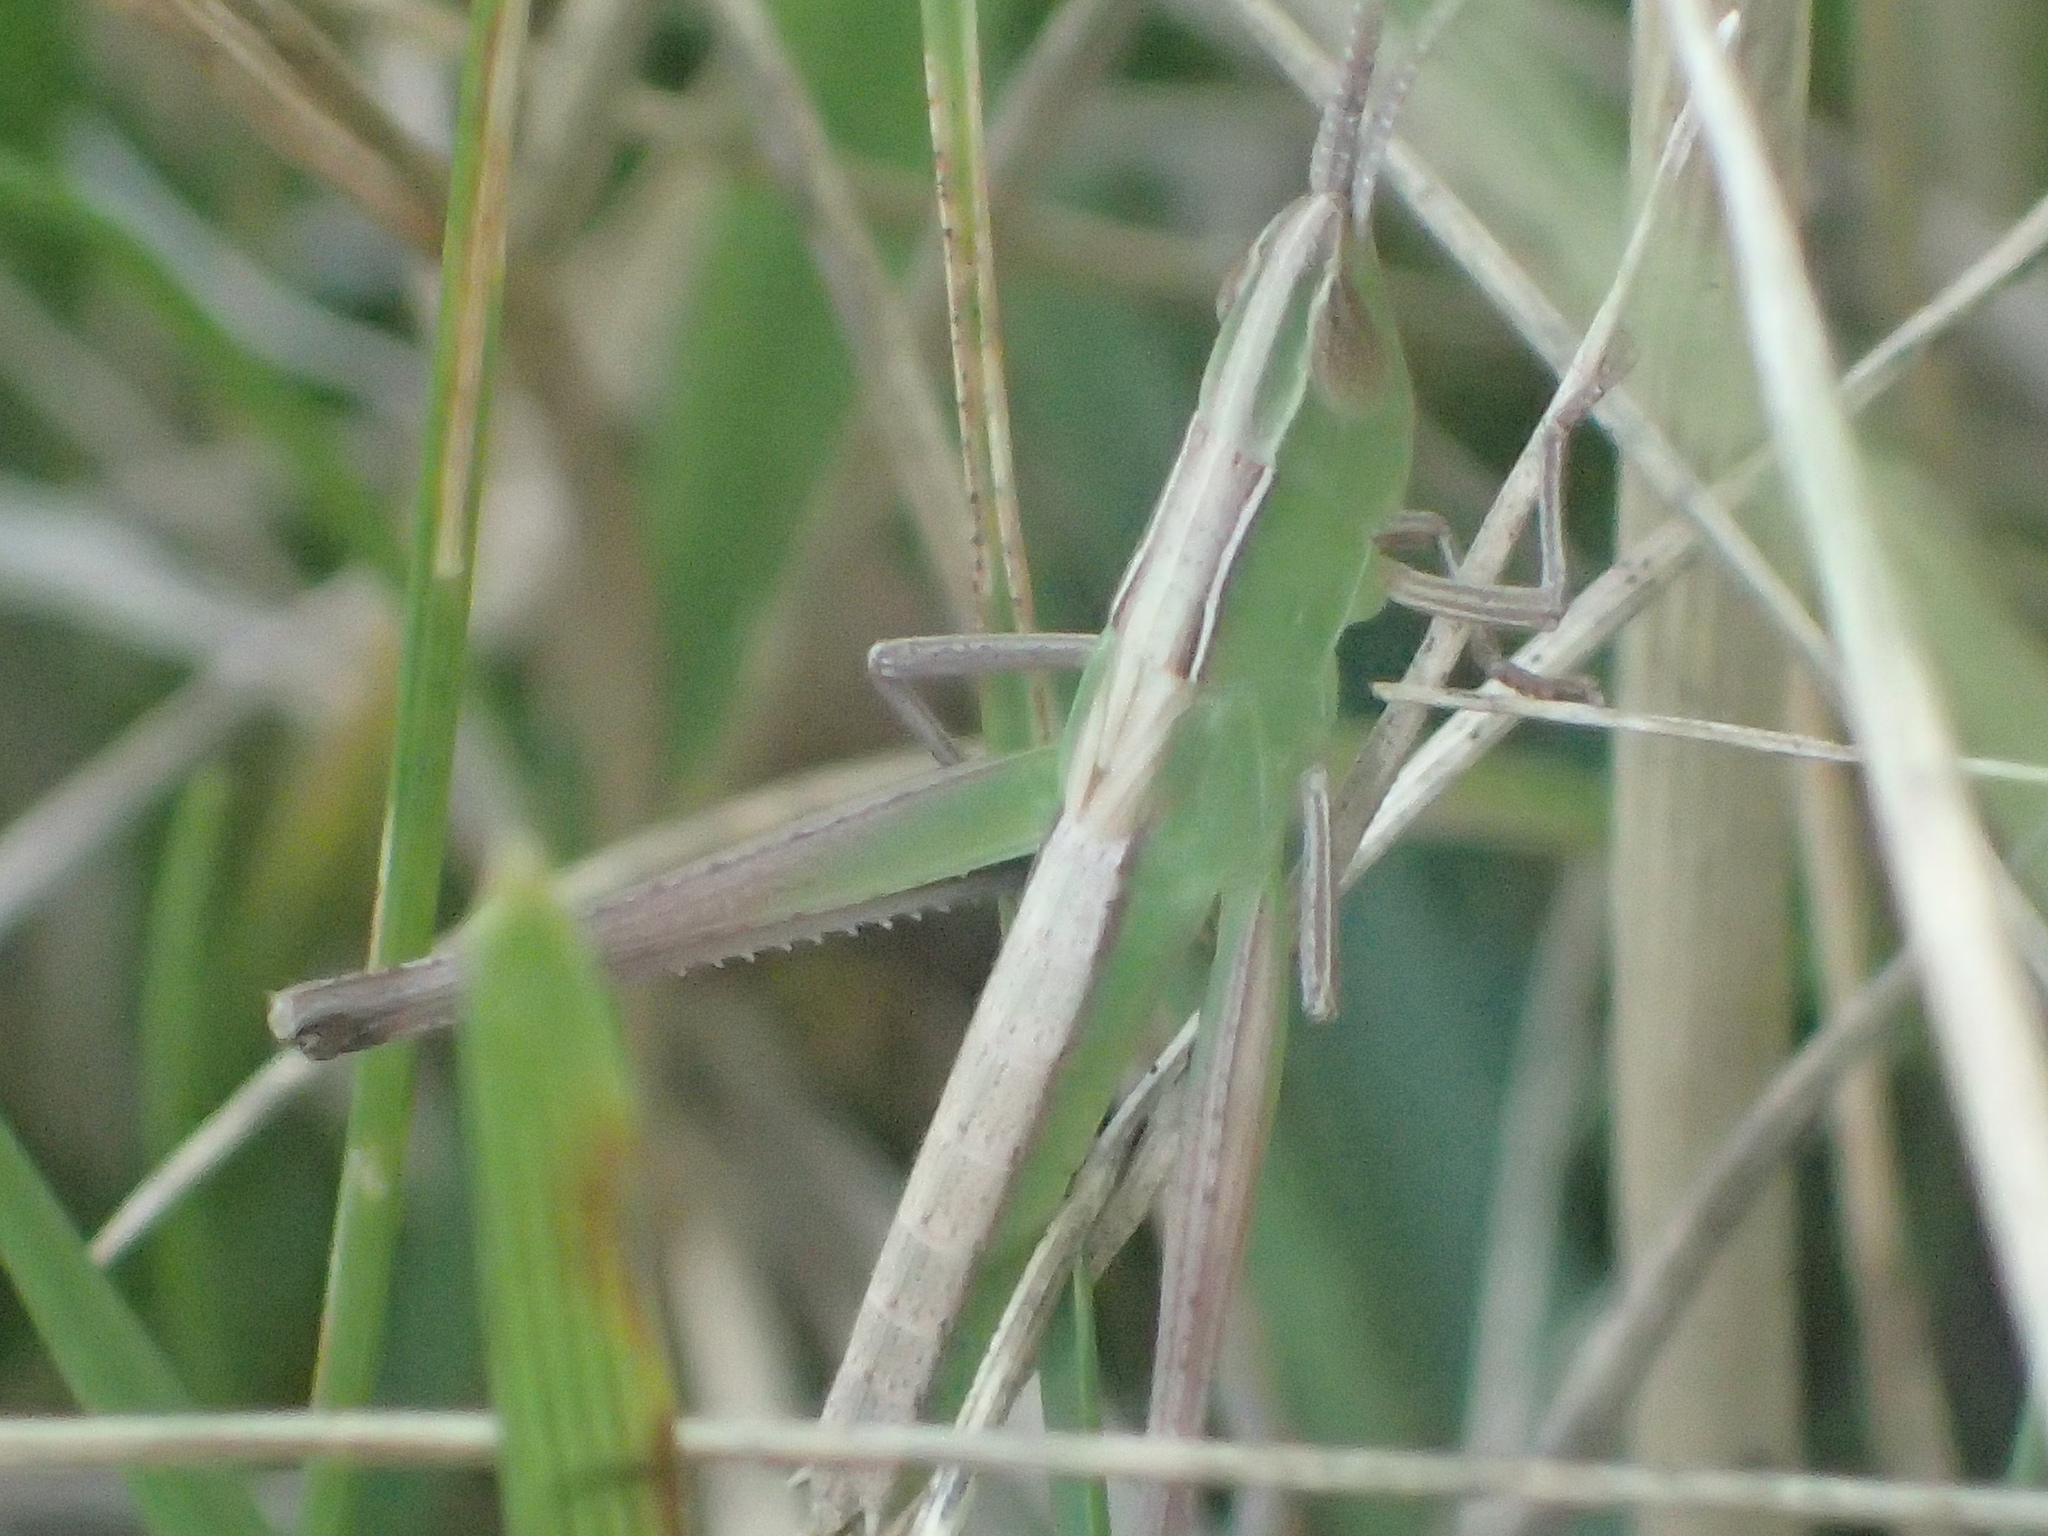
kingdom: Animalia
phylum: Arthropoda
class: Insecta
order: Orthoptera
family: Acrididae
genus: Syrbula
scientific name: Syrbula admirabilis
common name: Handsome grasshopper
